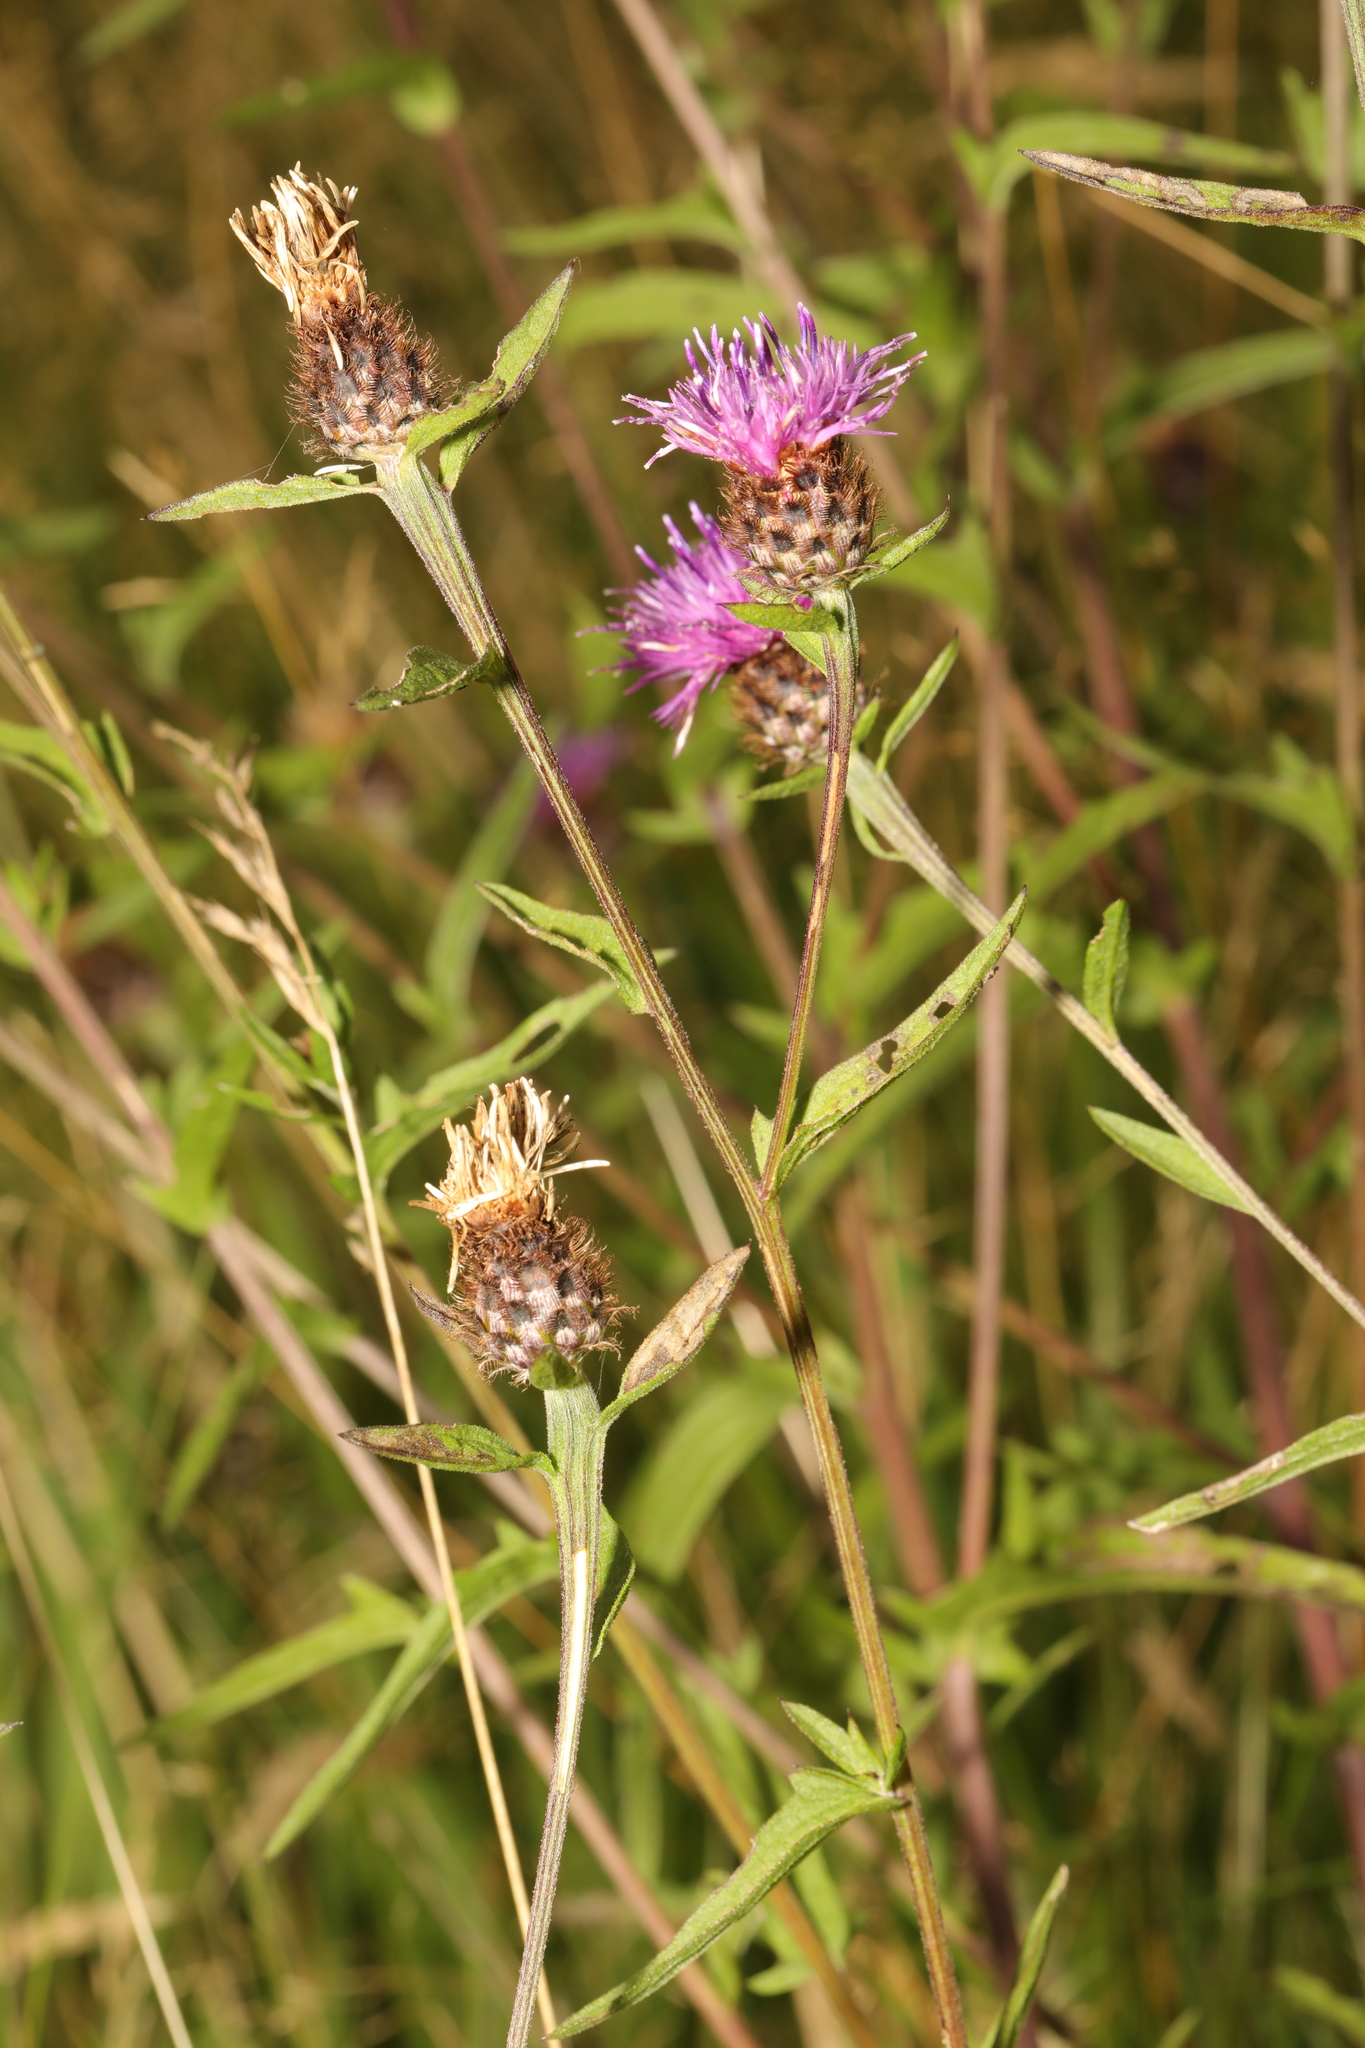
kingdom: Plantae
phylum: Tracheophyta
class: Magnoliopsida
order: Asterales
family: Asteraceae
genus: Centaurea
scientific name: Centaurea nigra
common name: Lesser knapweed
